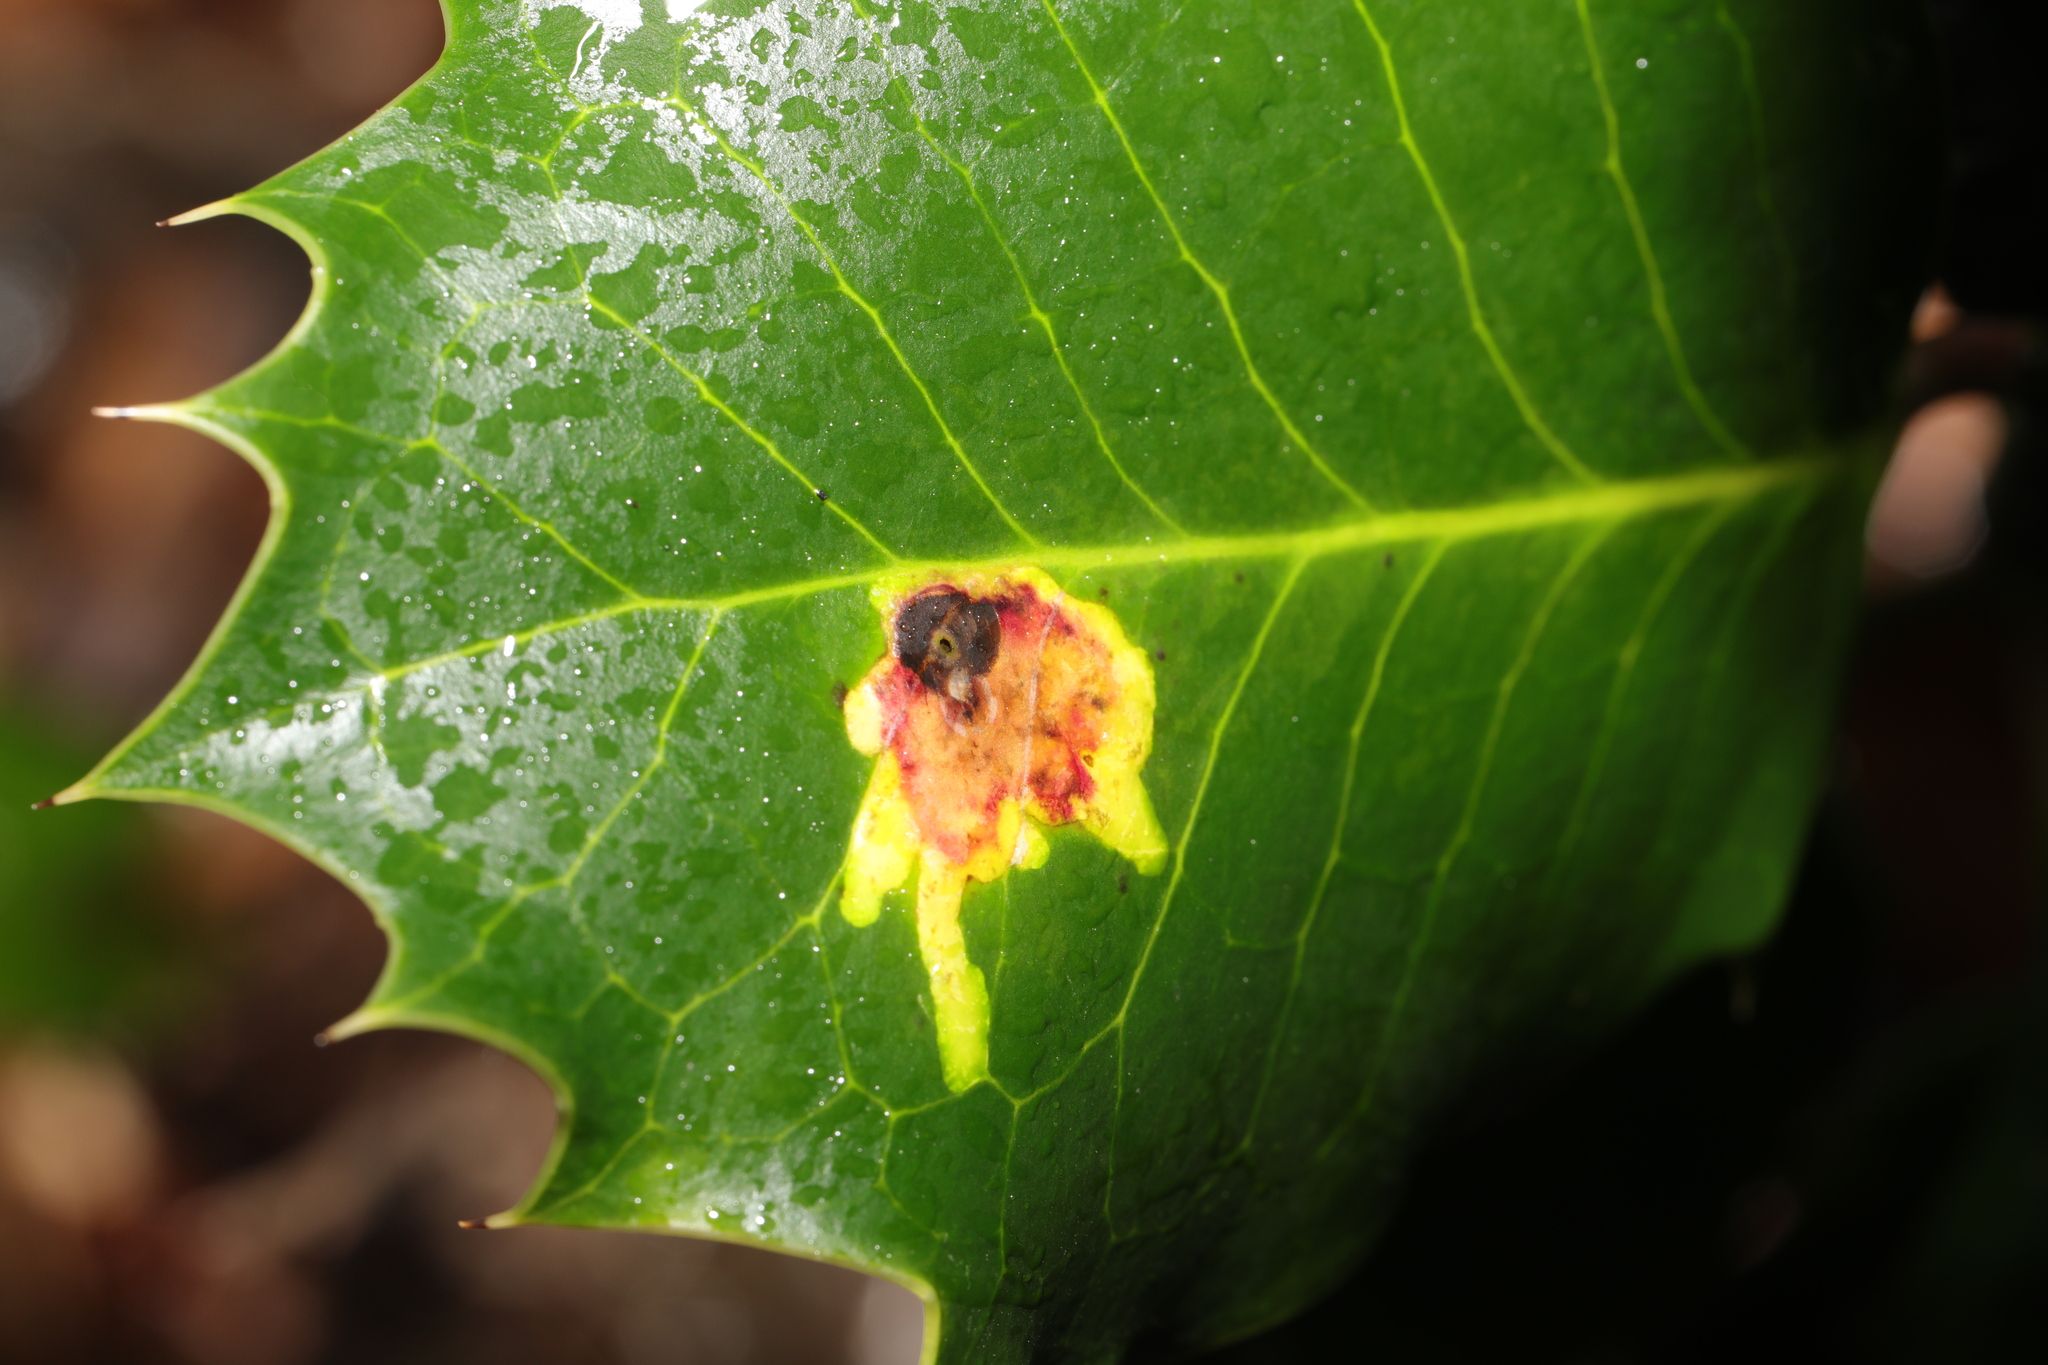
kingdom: Animalia
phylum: Arthropoda
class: Insecta
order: Diptera
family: Agromyzidae
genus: Phytomyza
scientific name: Phytomyza ilicis
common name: Holly leafminer
